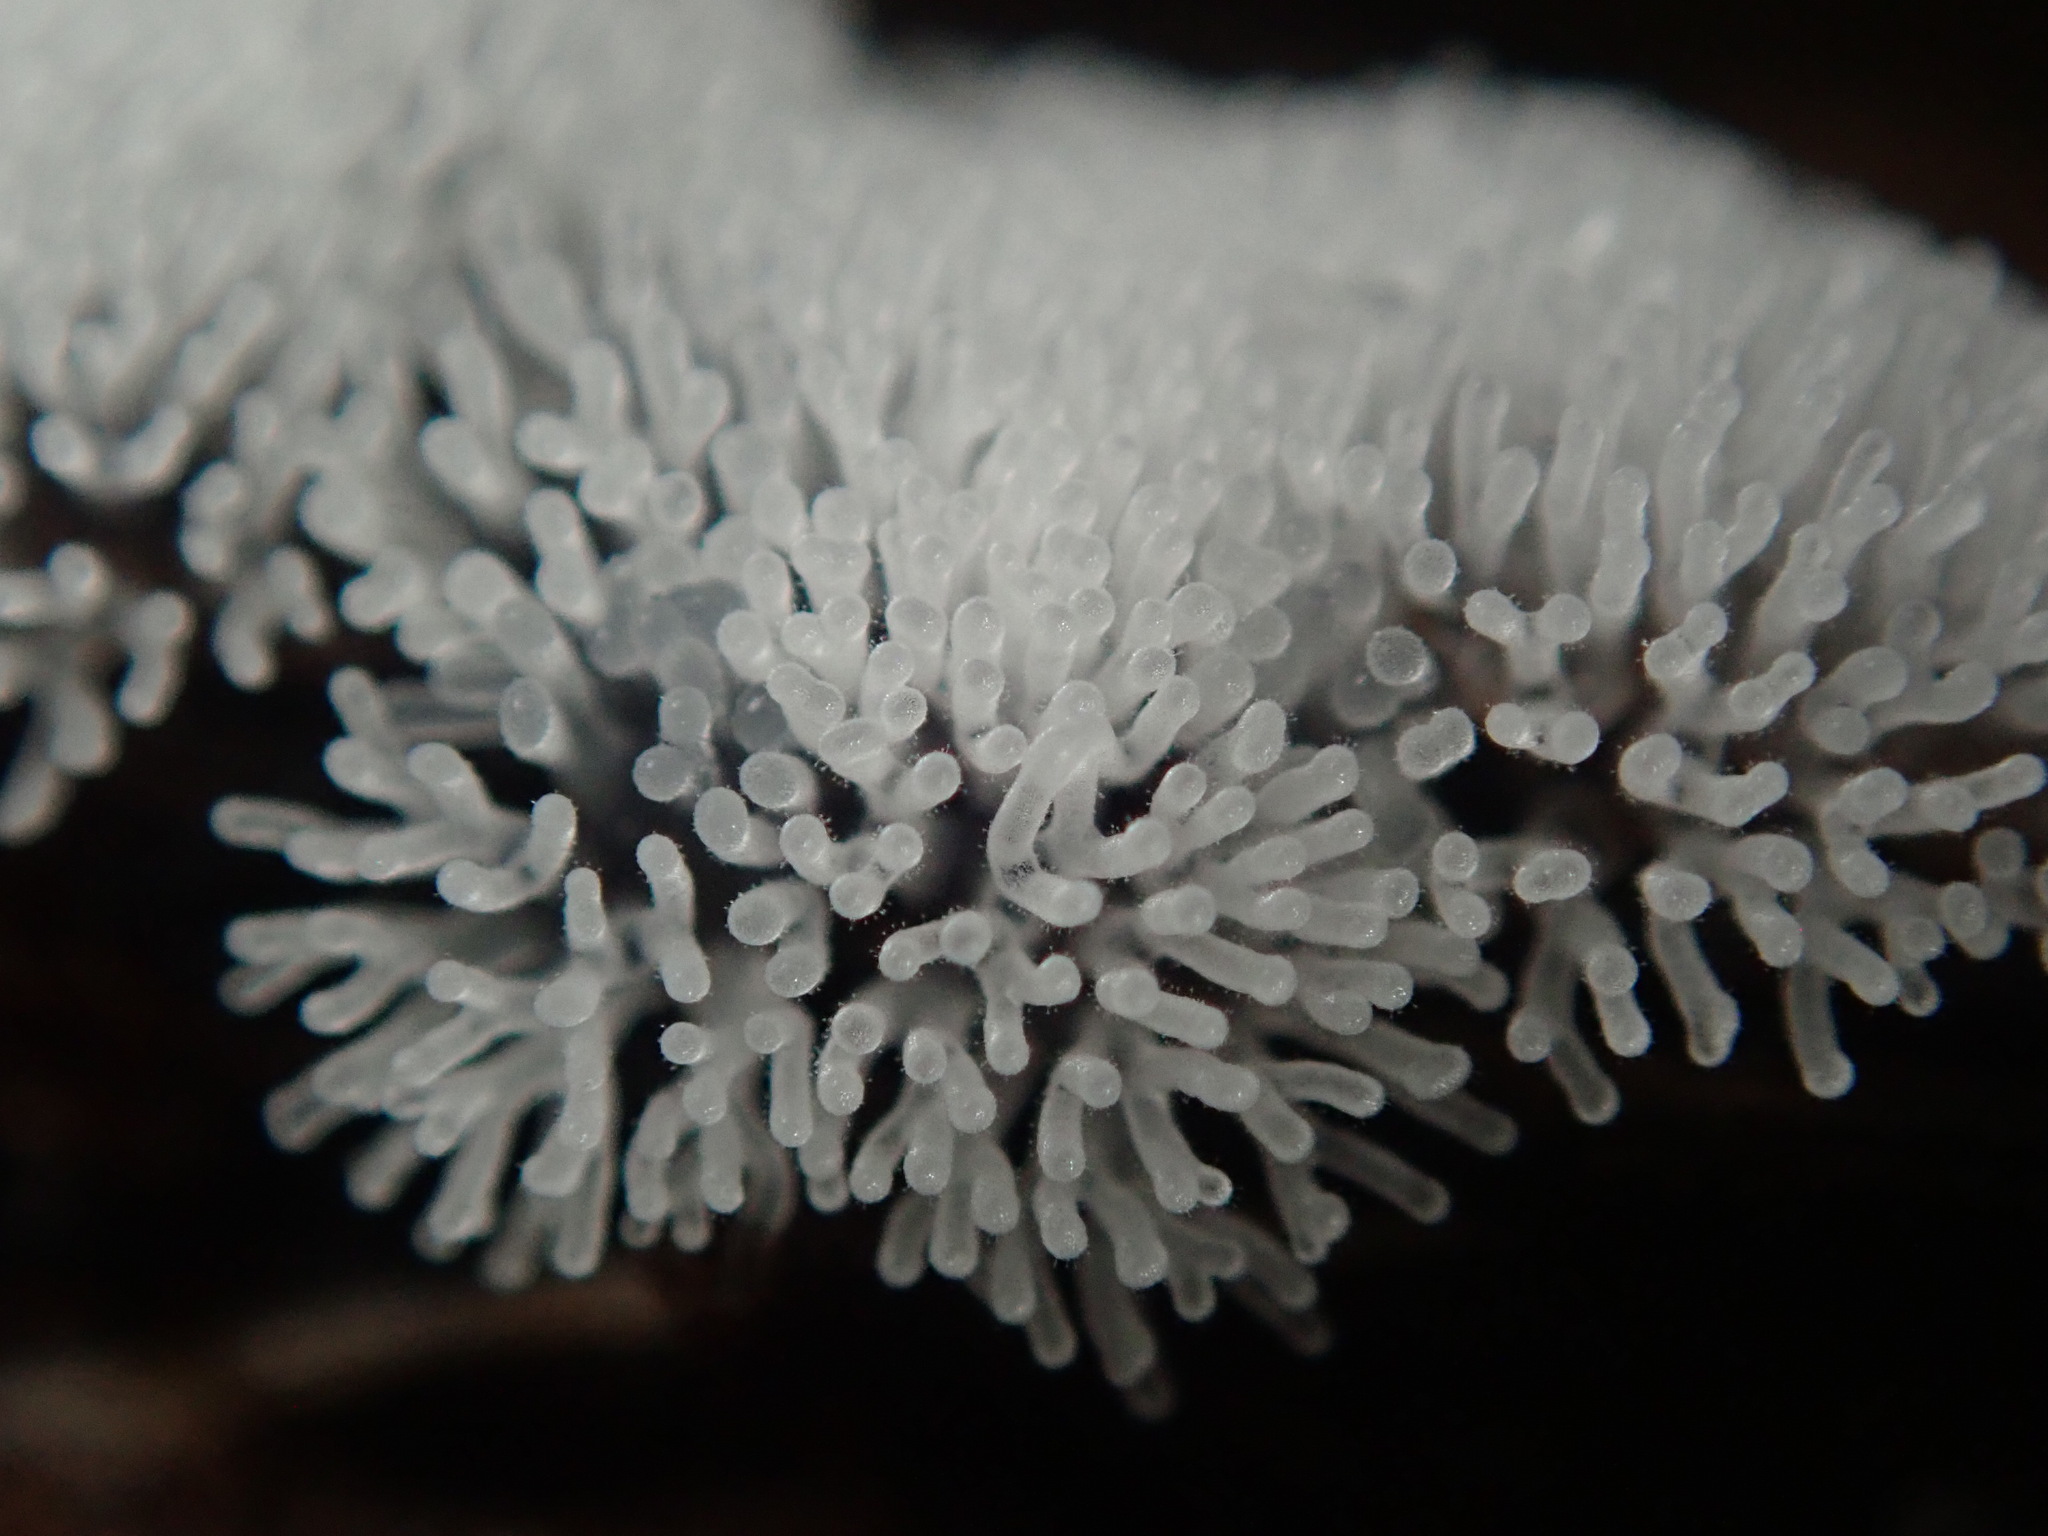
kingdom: Protozoa
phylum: Mycetozoa
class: Protosteliomycetes
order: Ceratiomyxales
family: Ceratiomyxaceae
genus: Ceratiomyxa
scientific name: Ceratiomyxa fruticulosa
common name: Honeycomb coral slime mold
